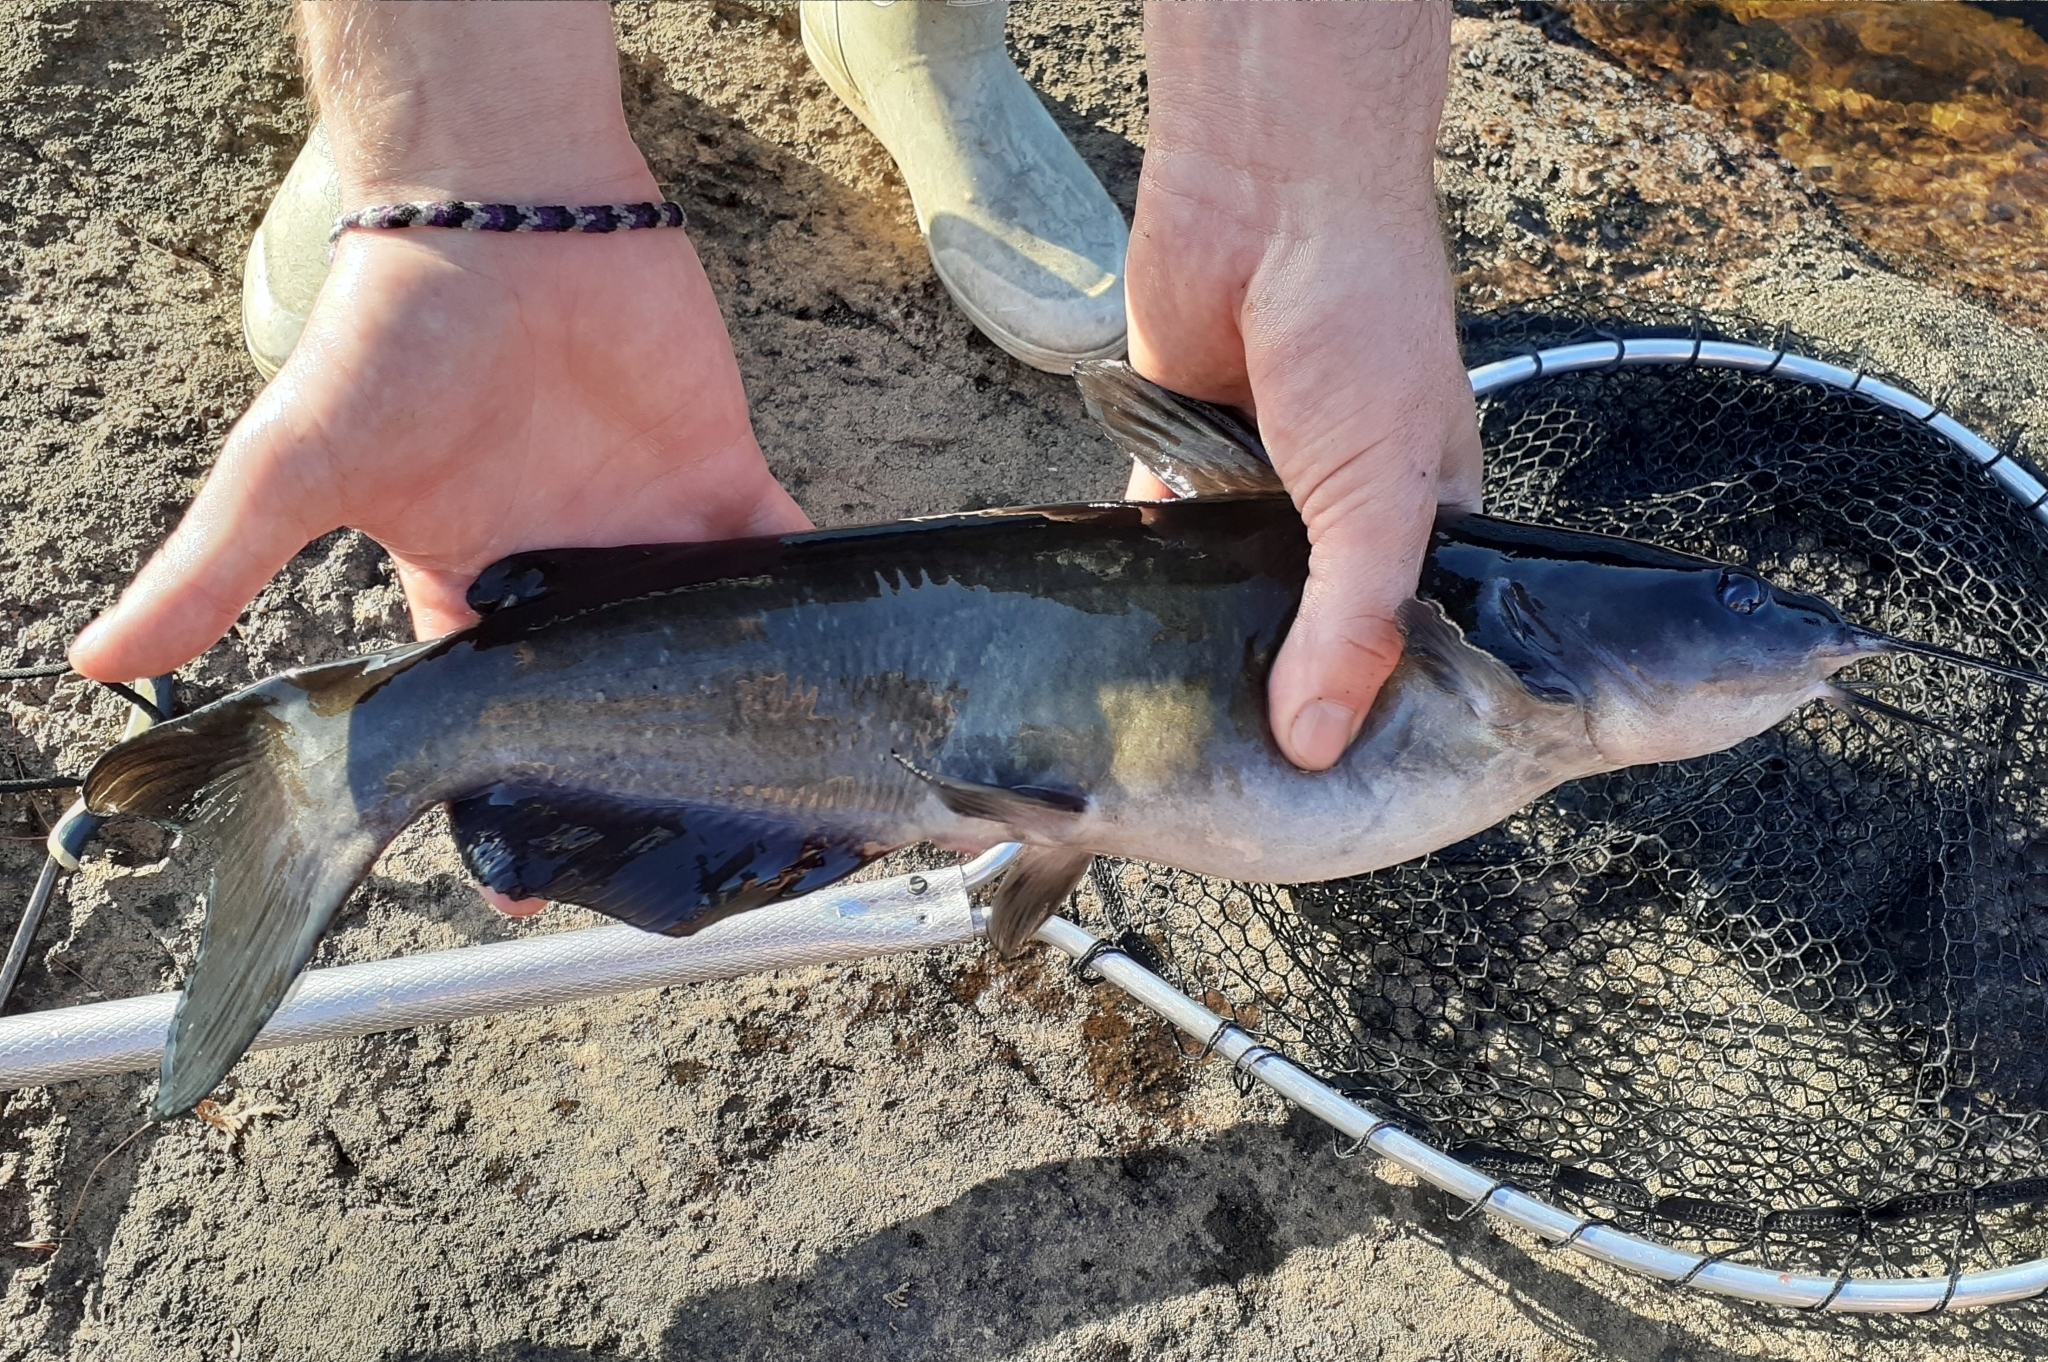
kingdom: Animalia
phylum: Chordata
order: Siluriformes
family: Ictaluridae
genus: Ictalurus
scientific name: Ictalurus punctatus
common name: Channel catfish
